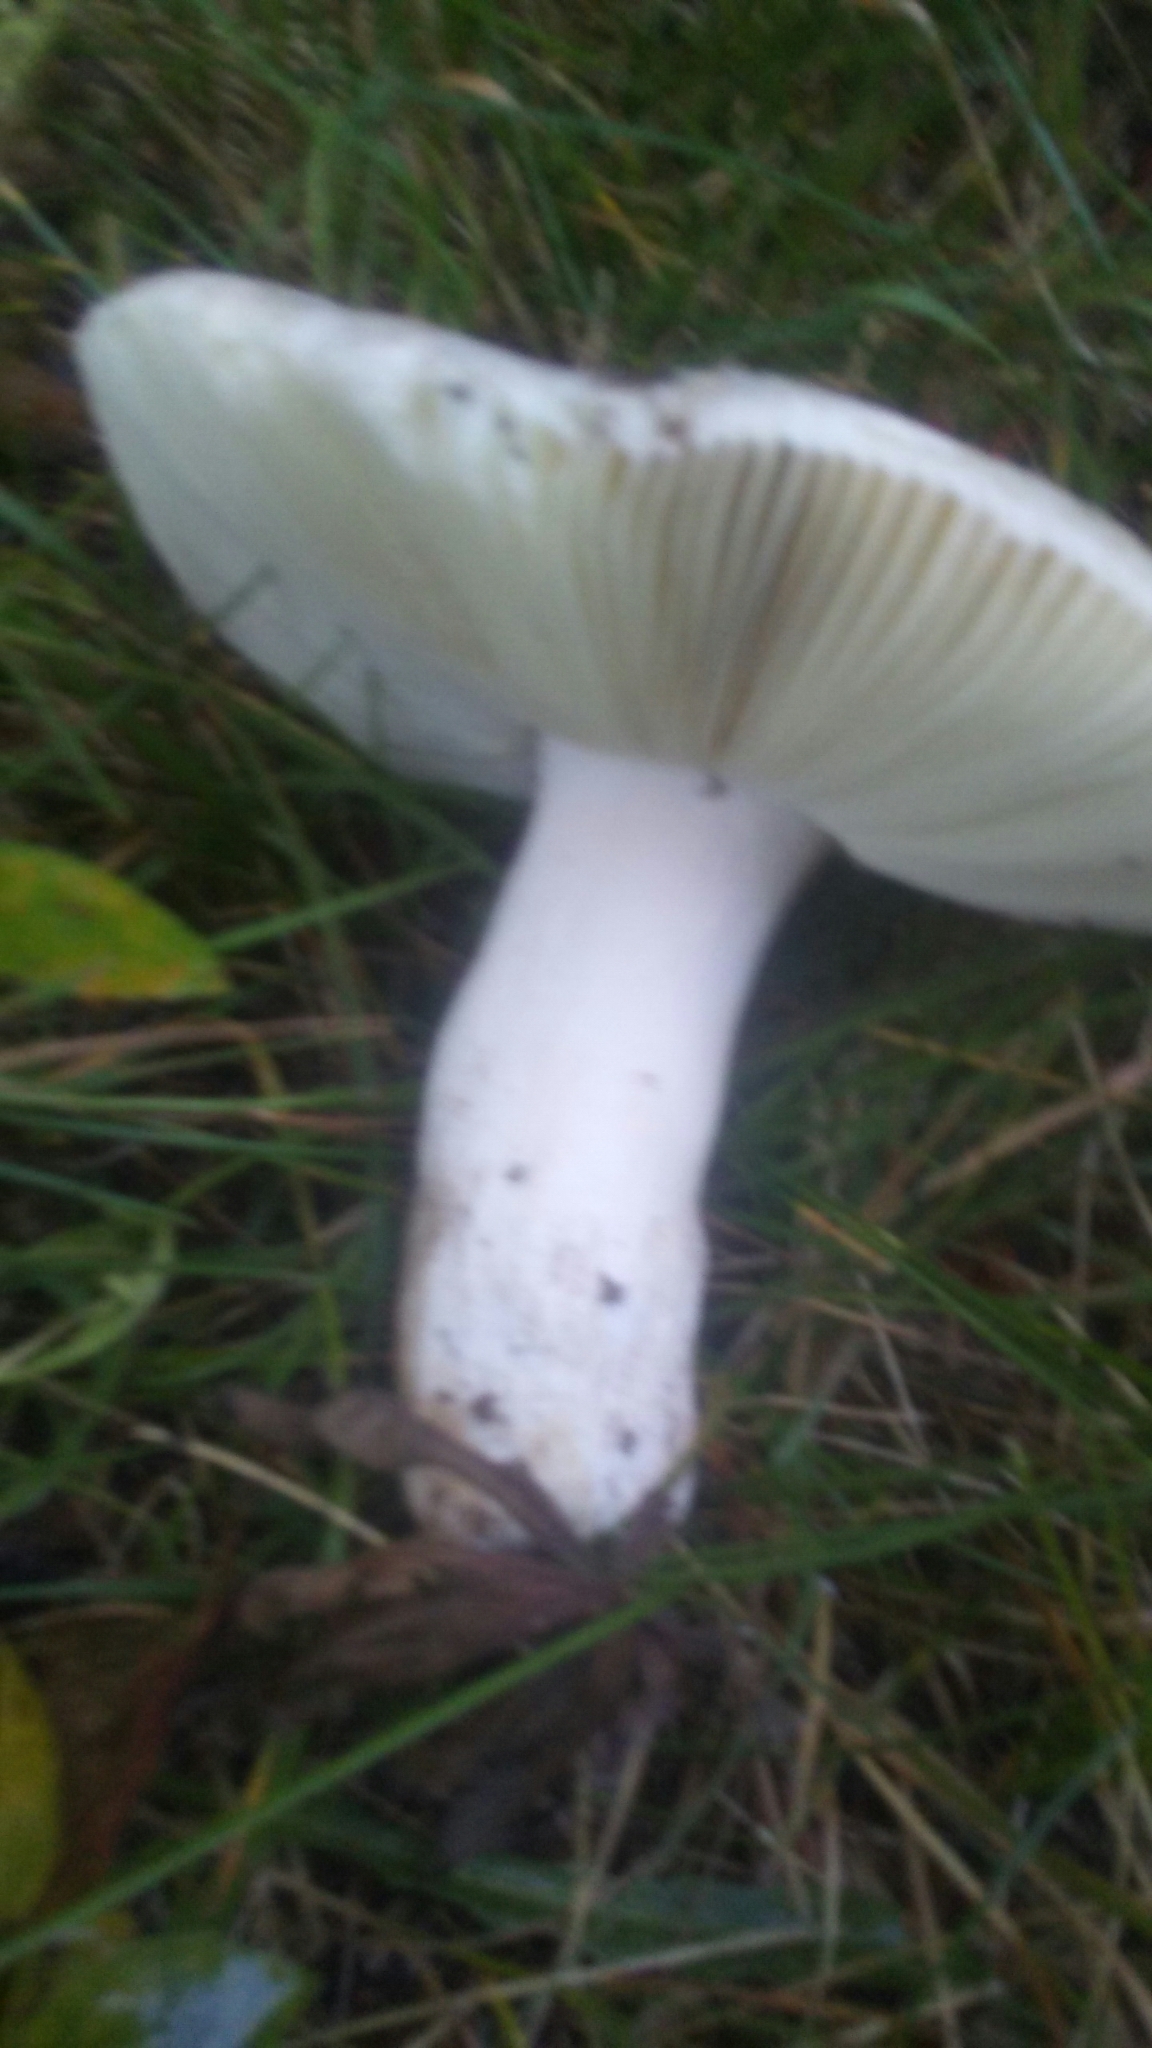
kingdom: Fungi
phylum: Basidiomycota
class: Agaricomycetes
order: Russulales
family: Russulaceae
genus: Russula
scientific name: Russula
